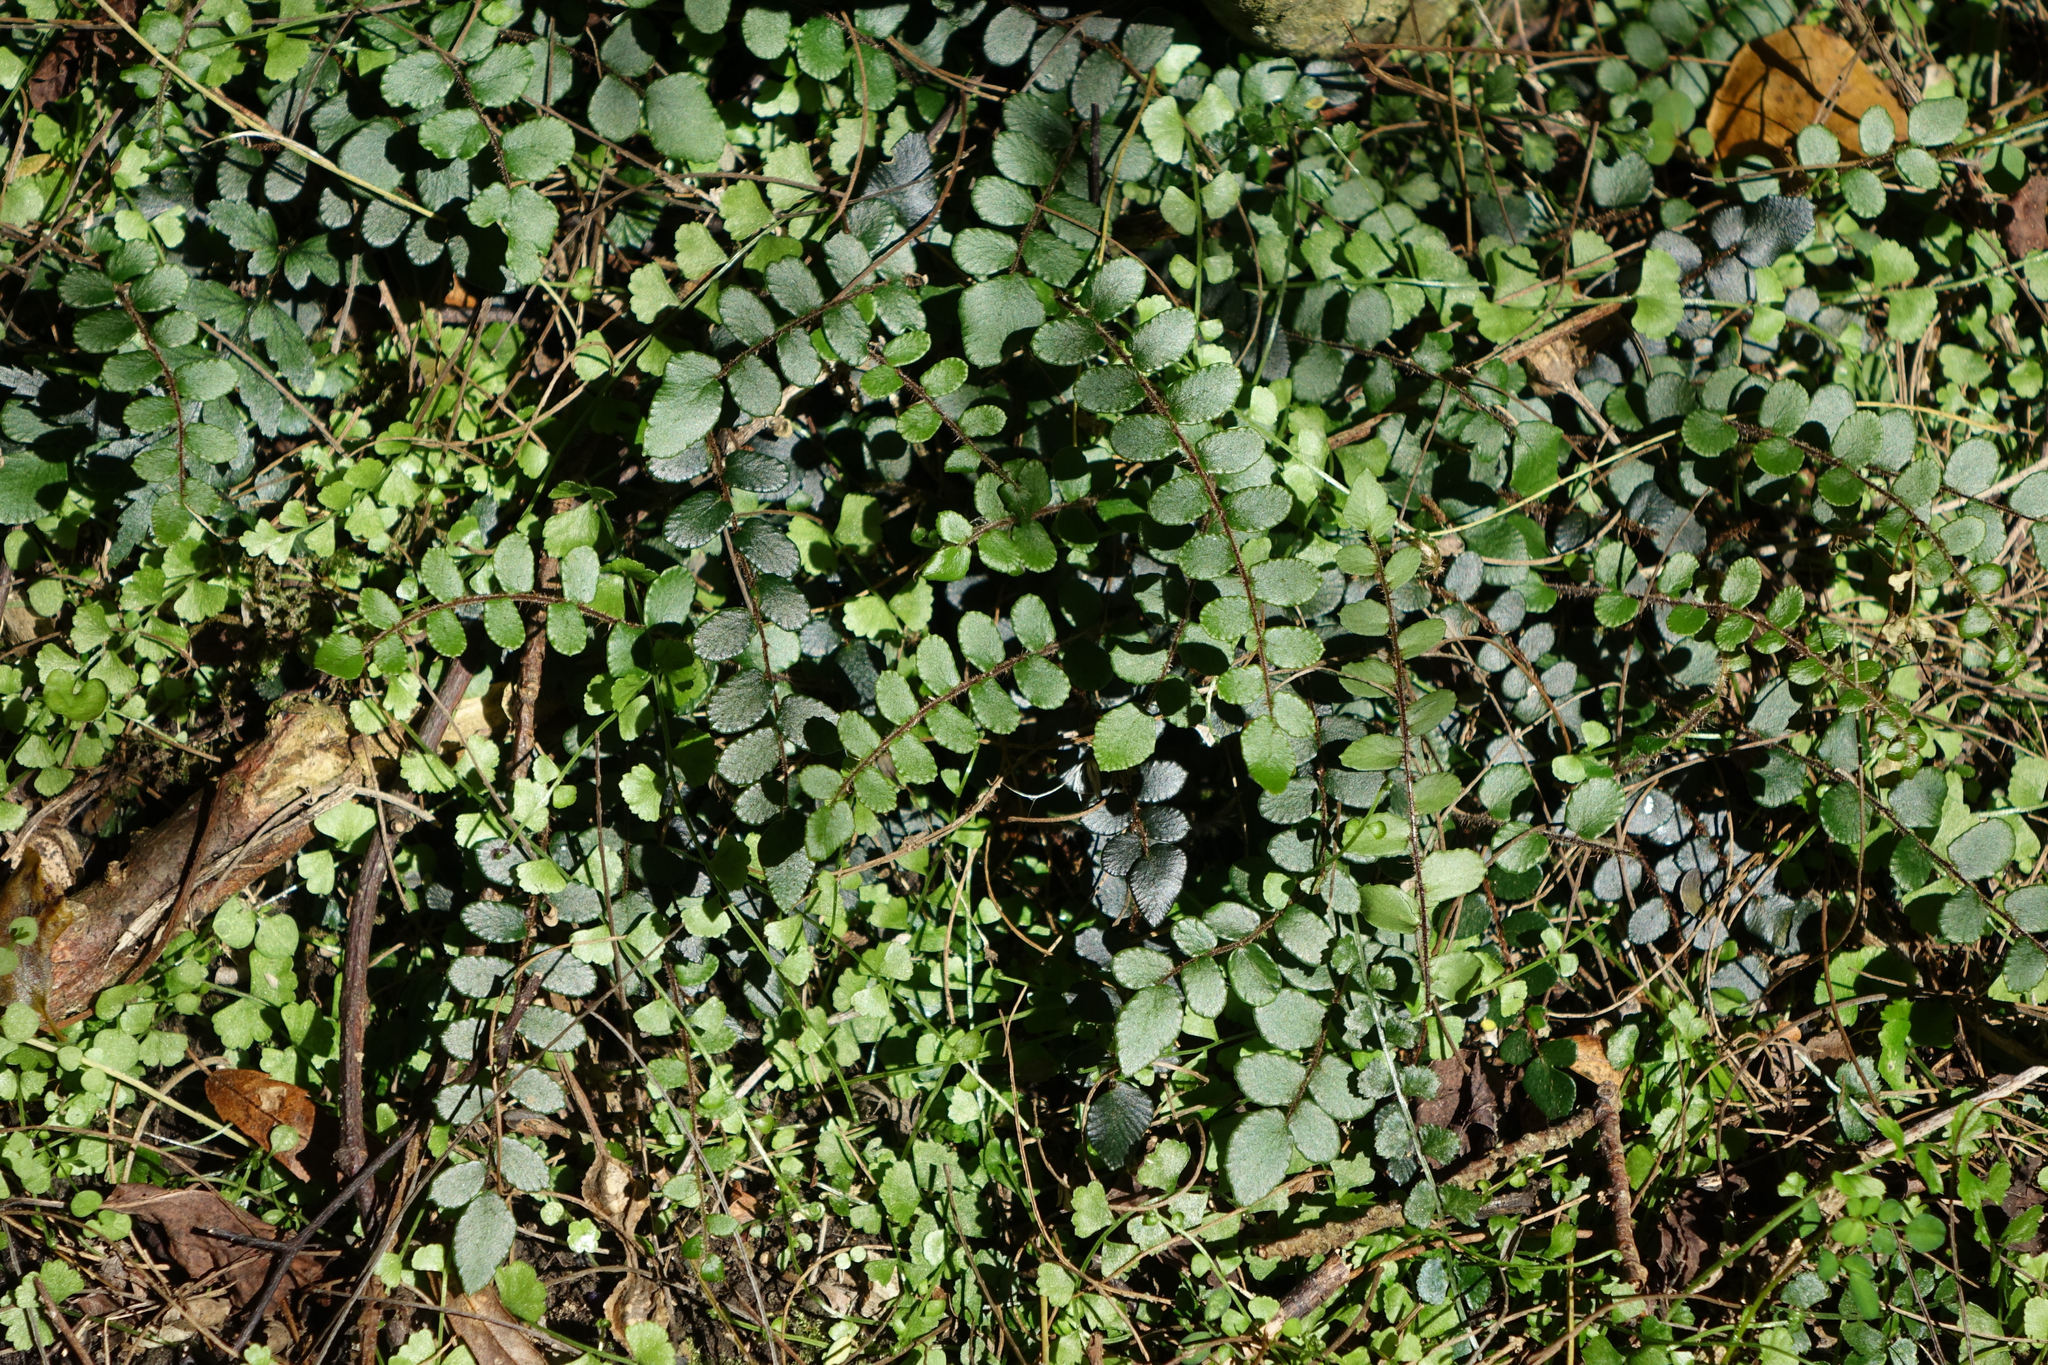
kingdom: Plantae
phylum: Tracheophyta
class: Polypodiopsida
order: Polypodiales
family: Pteridaceae
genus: Pellaea
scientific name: Pellaea rotundifolia
